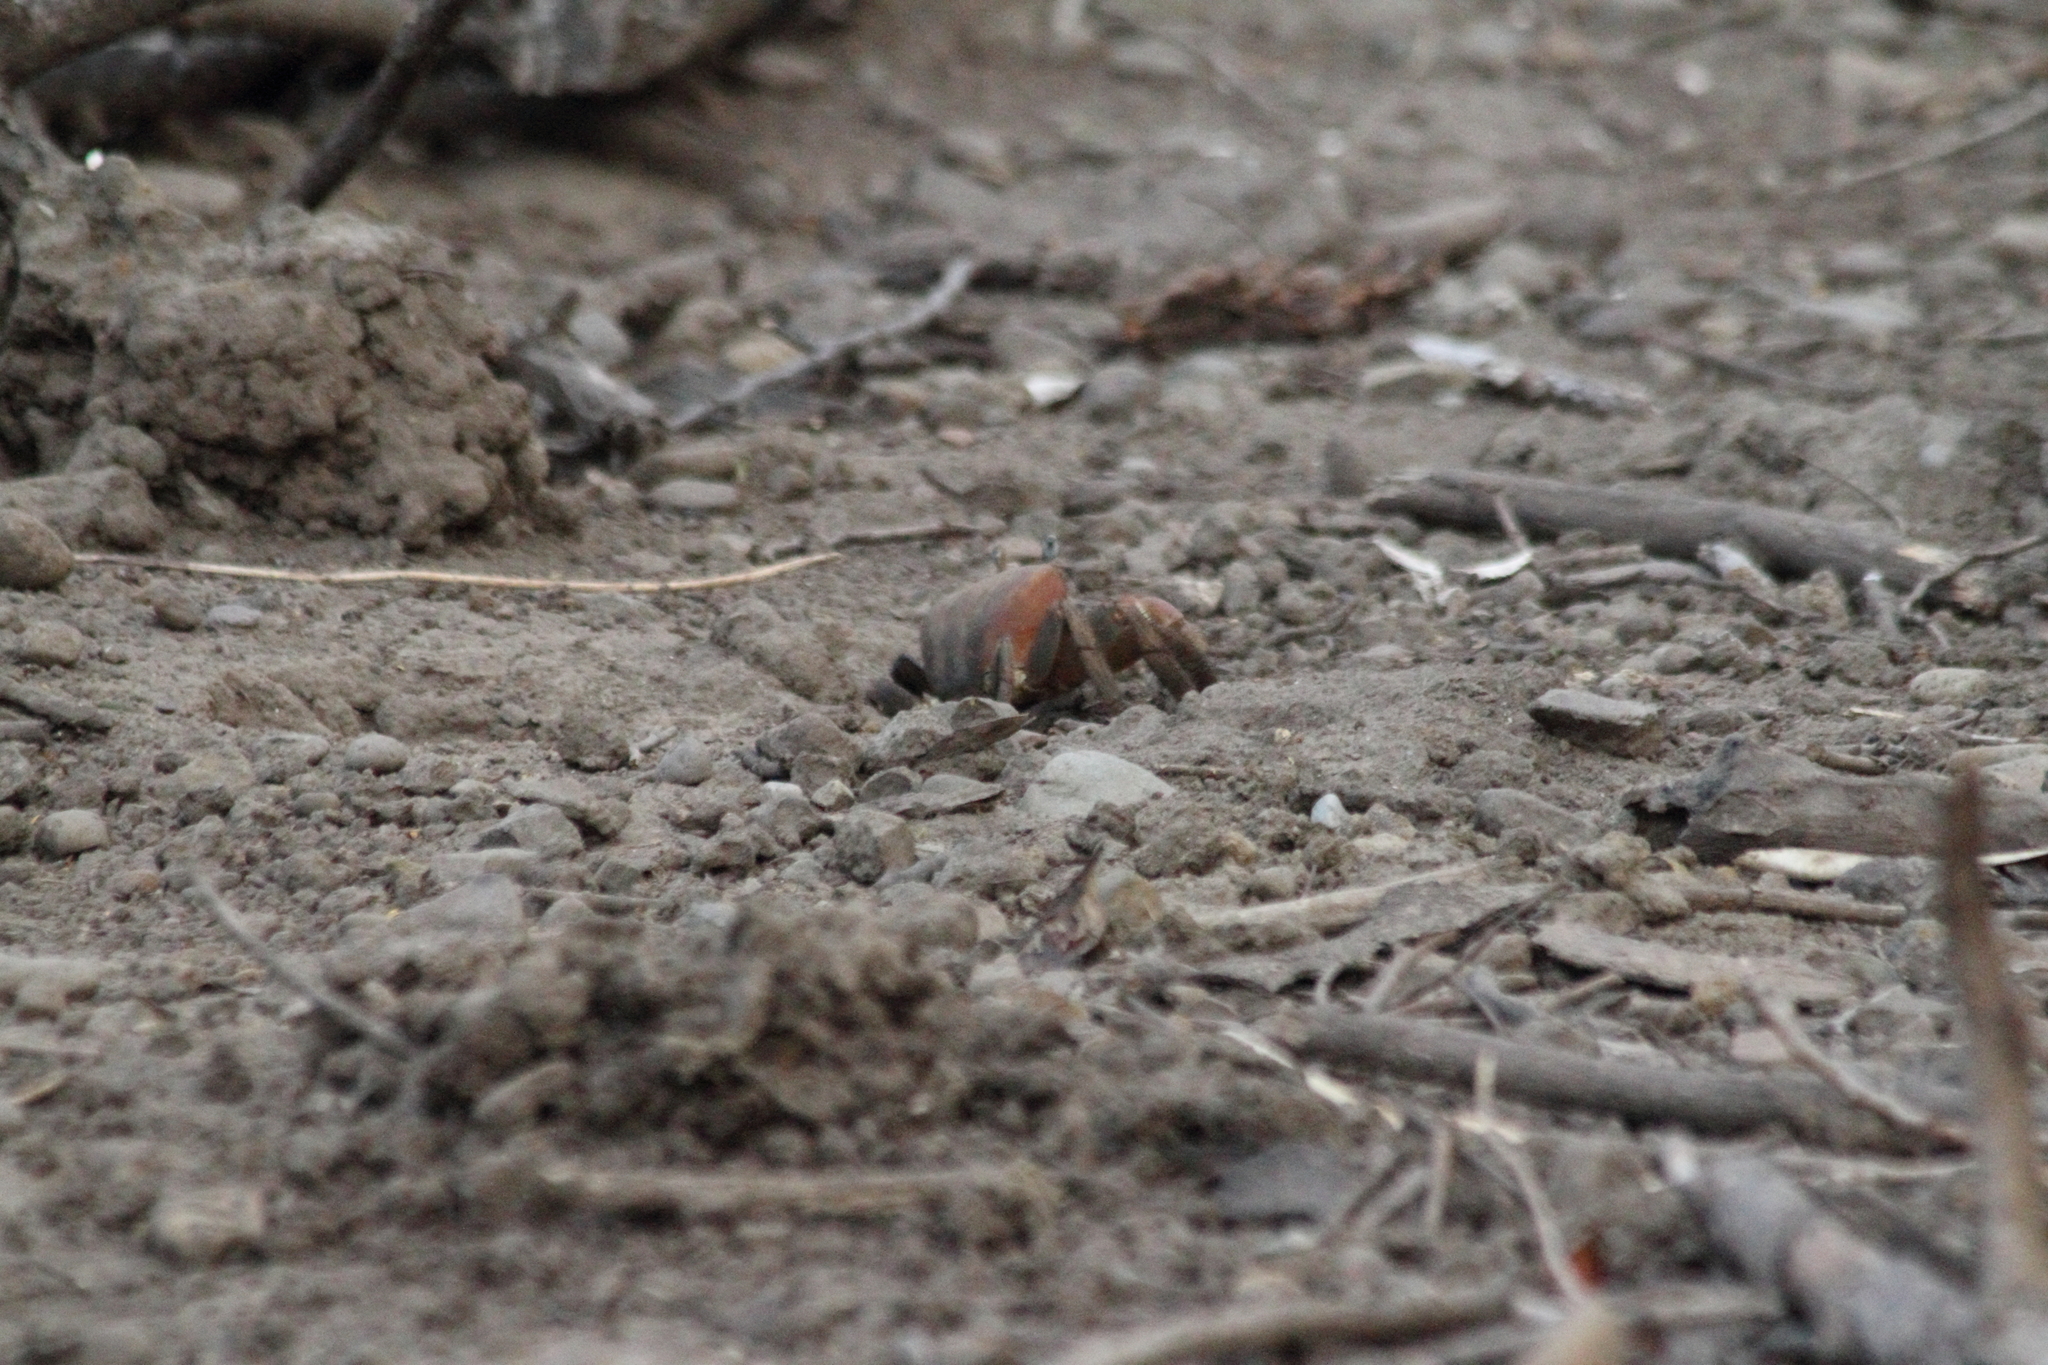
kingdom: Animalia
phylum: Arthropoda
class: Malacostraca
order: Decapoda
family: Gecarcinidae
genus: Cardisoma
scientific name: Cardisoma carnifex
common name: Brown land crab
